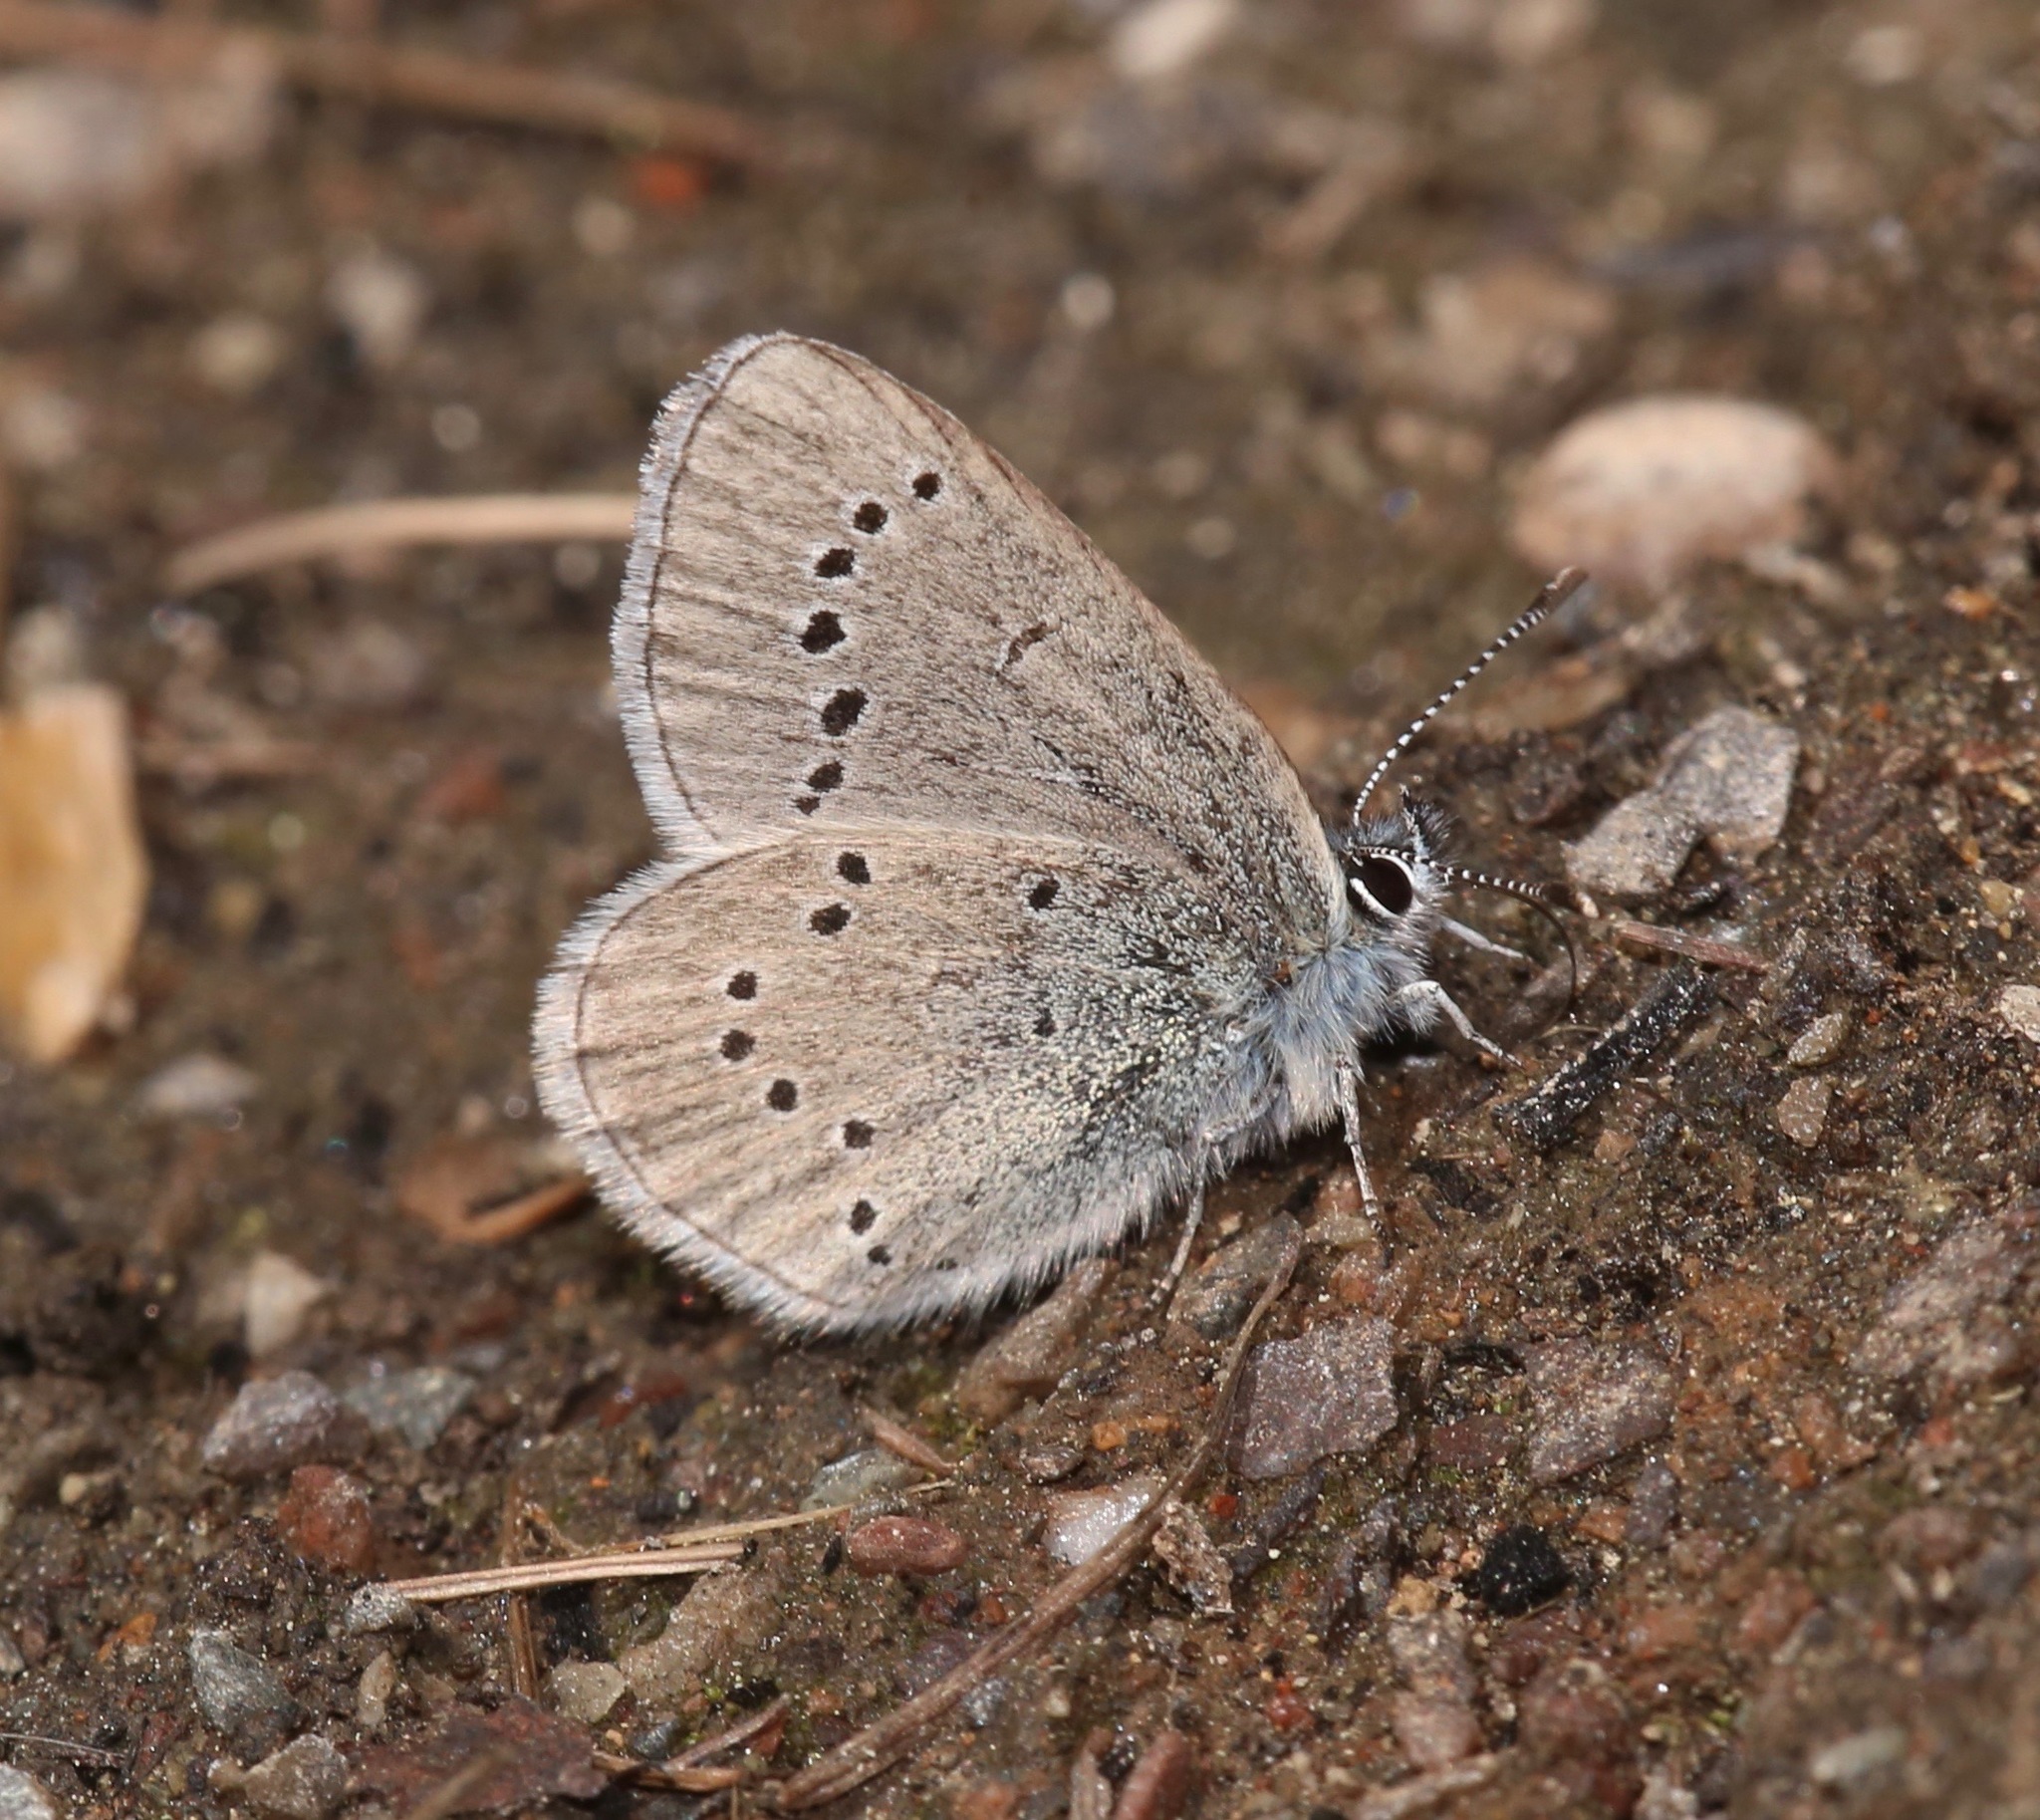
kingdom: Animalia
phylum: Arthropoda
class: Insecta
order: Lepidoptera
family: Lycaenidae
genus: Glaucopsyche
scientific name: Glaucopsyche lygdamus
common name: Silvery blue
